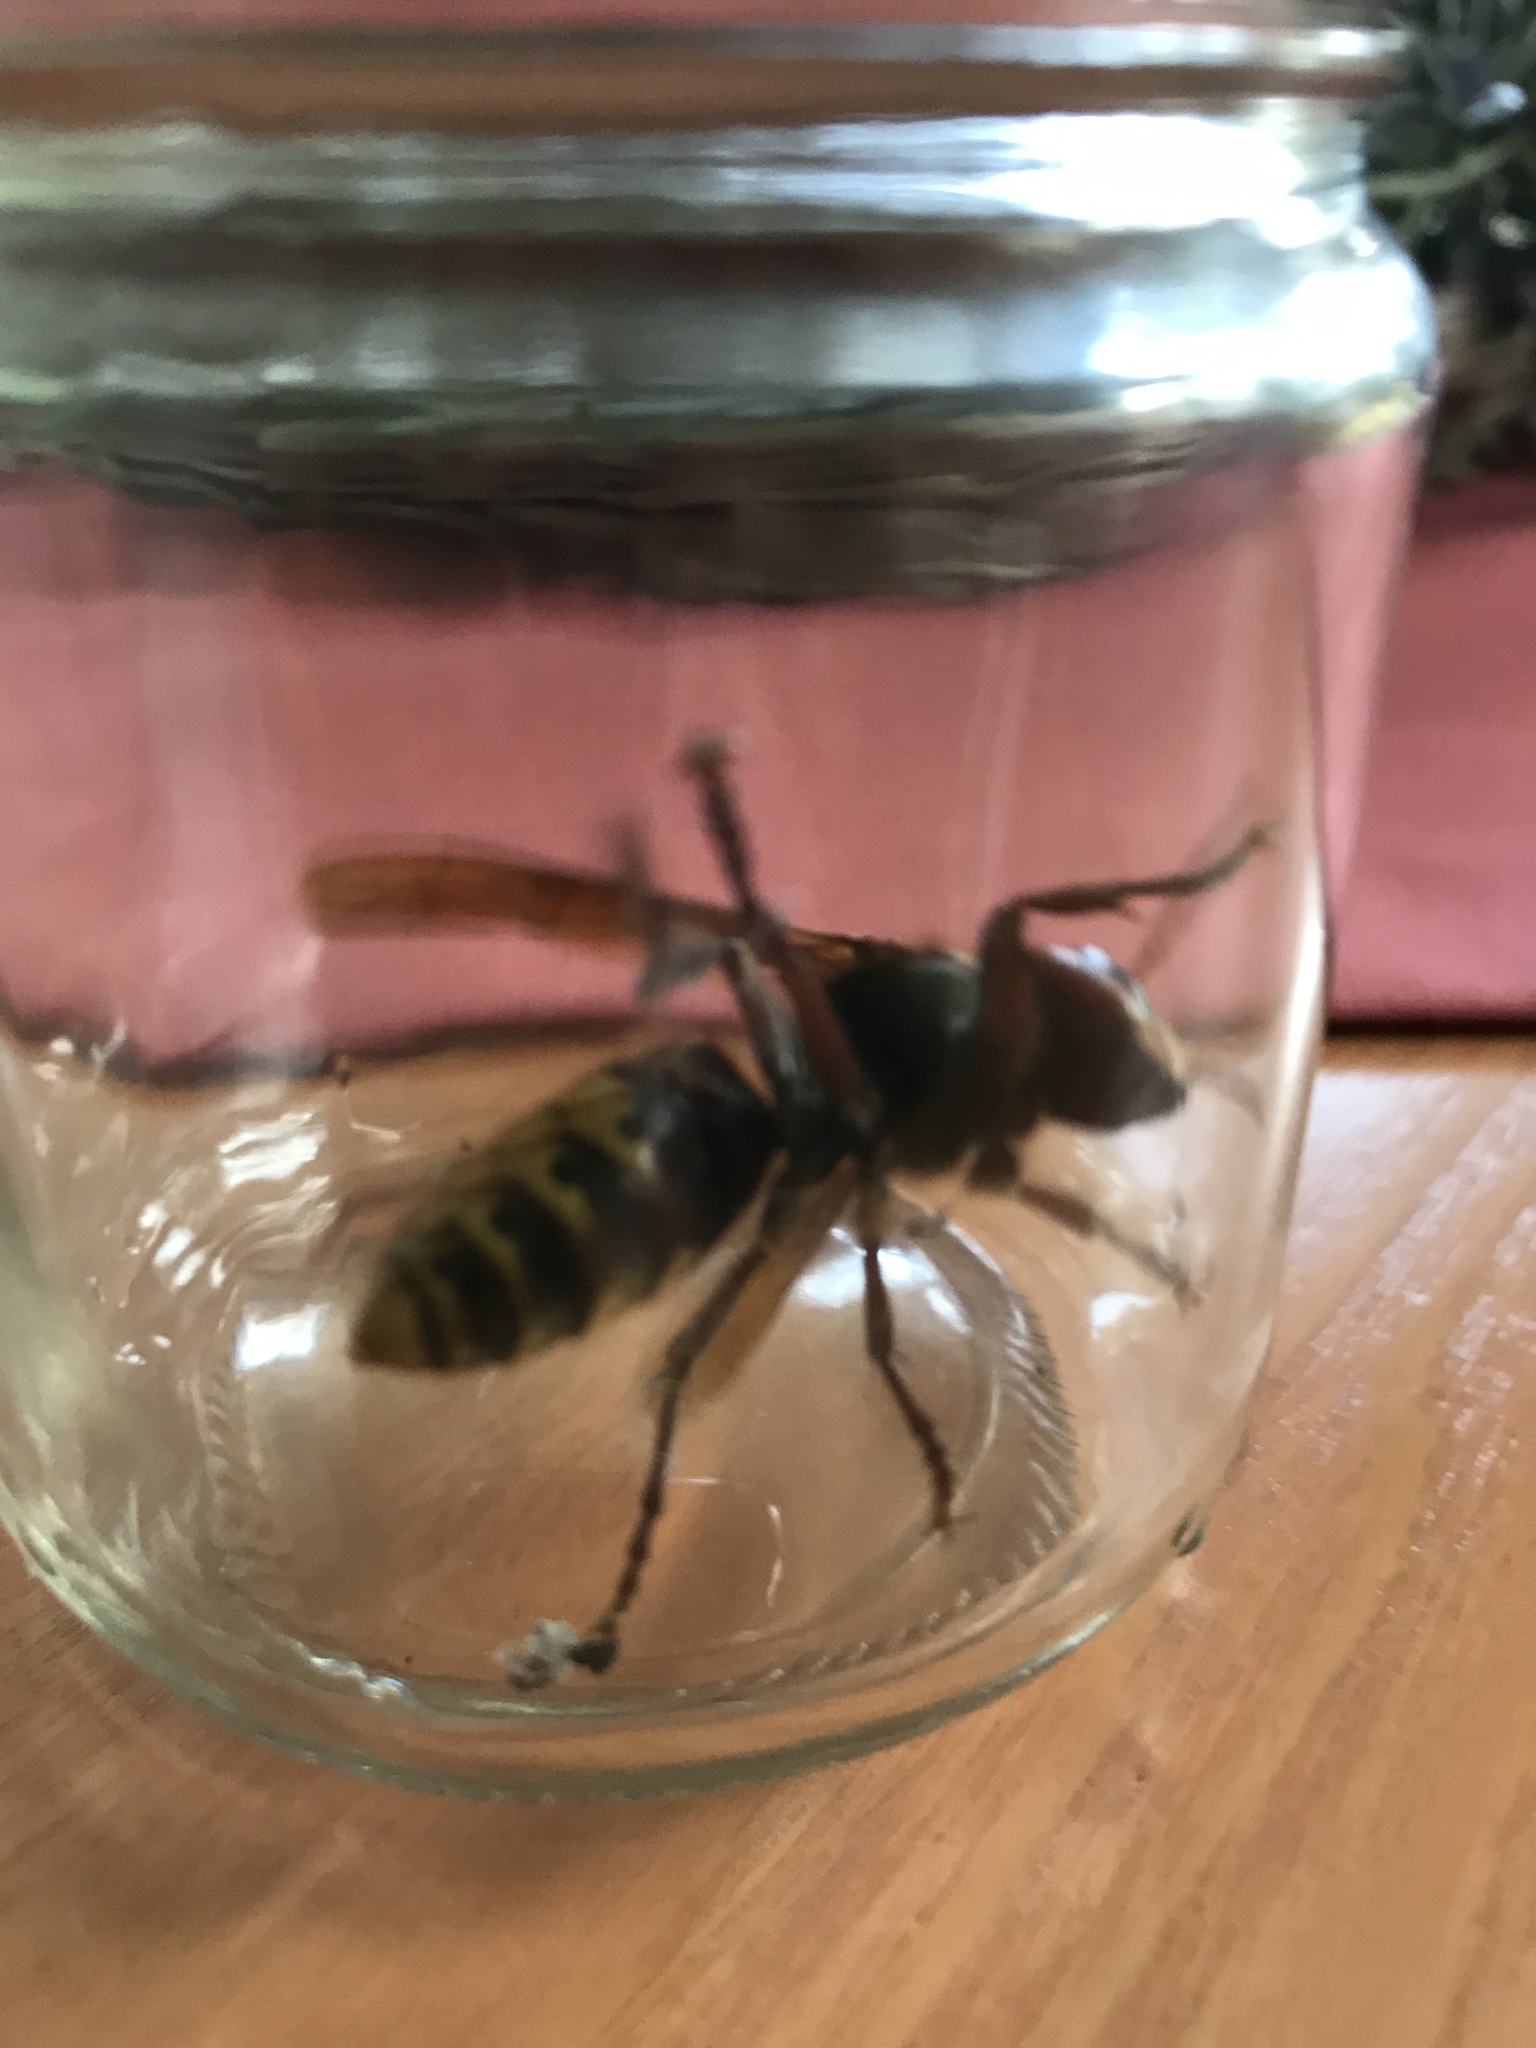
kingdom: Animalia
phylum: Arthropoda
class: Insecta
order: Hymenoptera
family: Vespidae
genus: Vespa
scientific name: Vespa crabro
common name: Hornet
